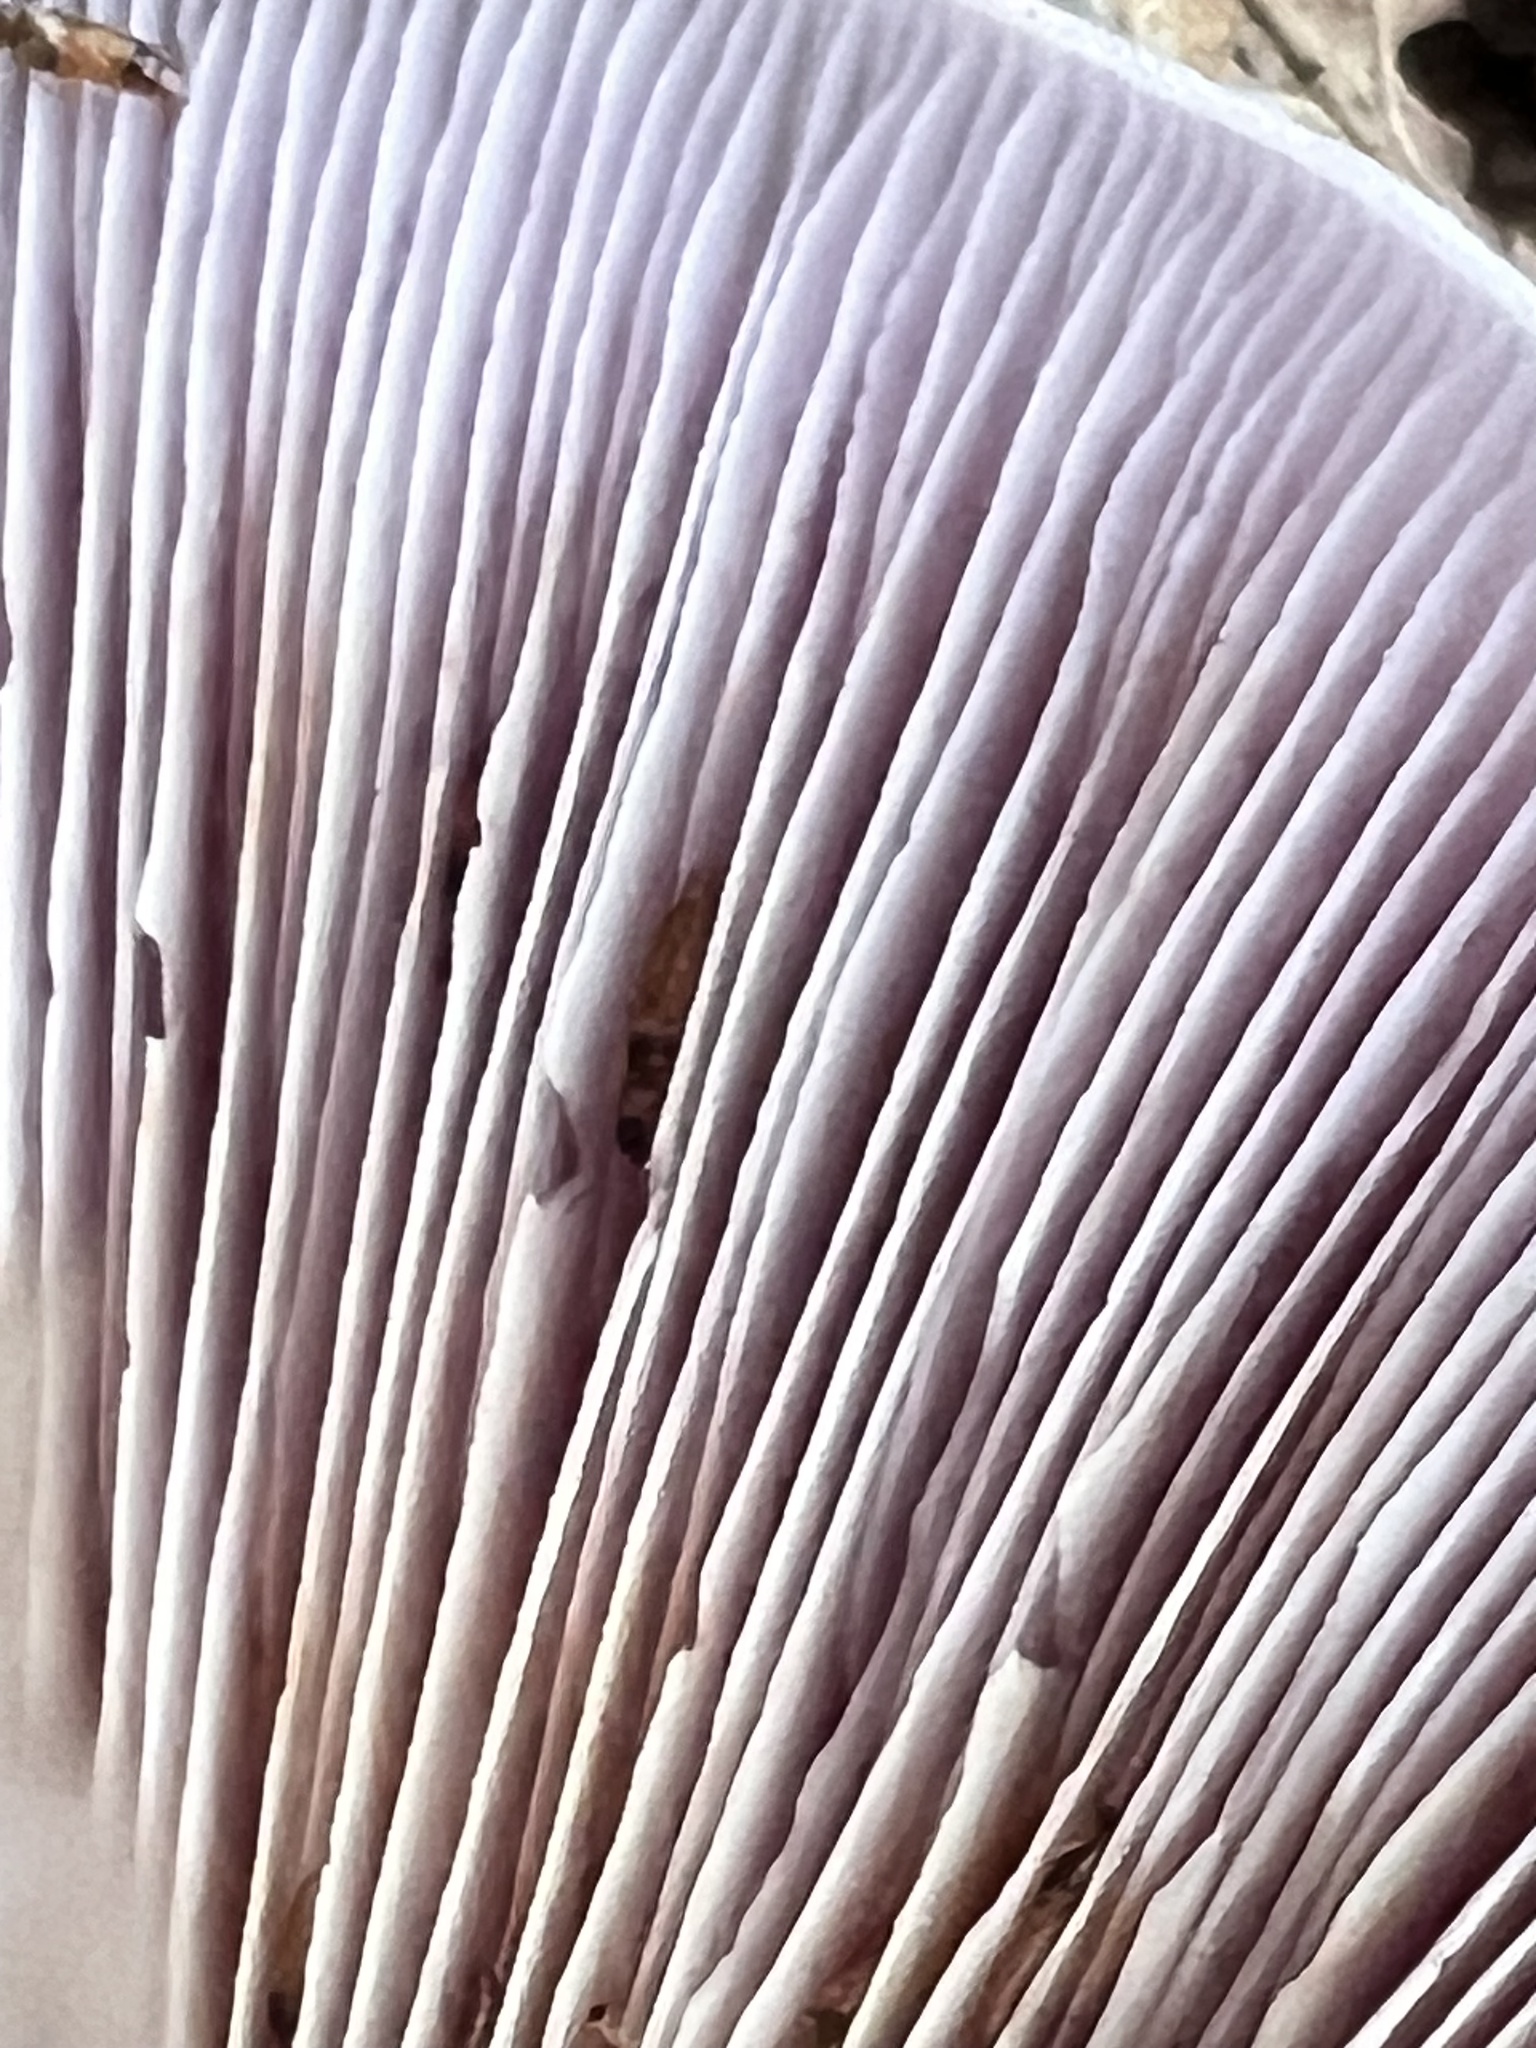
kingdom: Fungi
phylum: Basidiomycota
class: Agaricomycetes
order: Agaricales
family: Tricholomataceae
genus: Collybia
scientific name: Collybia
